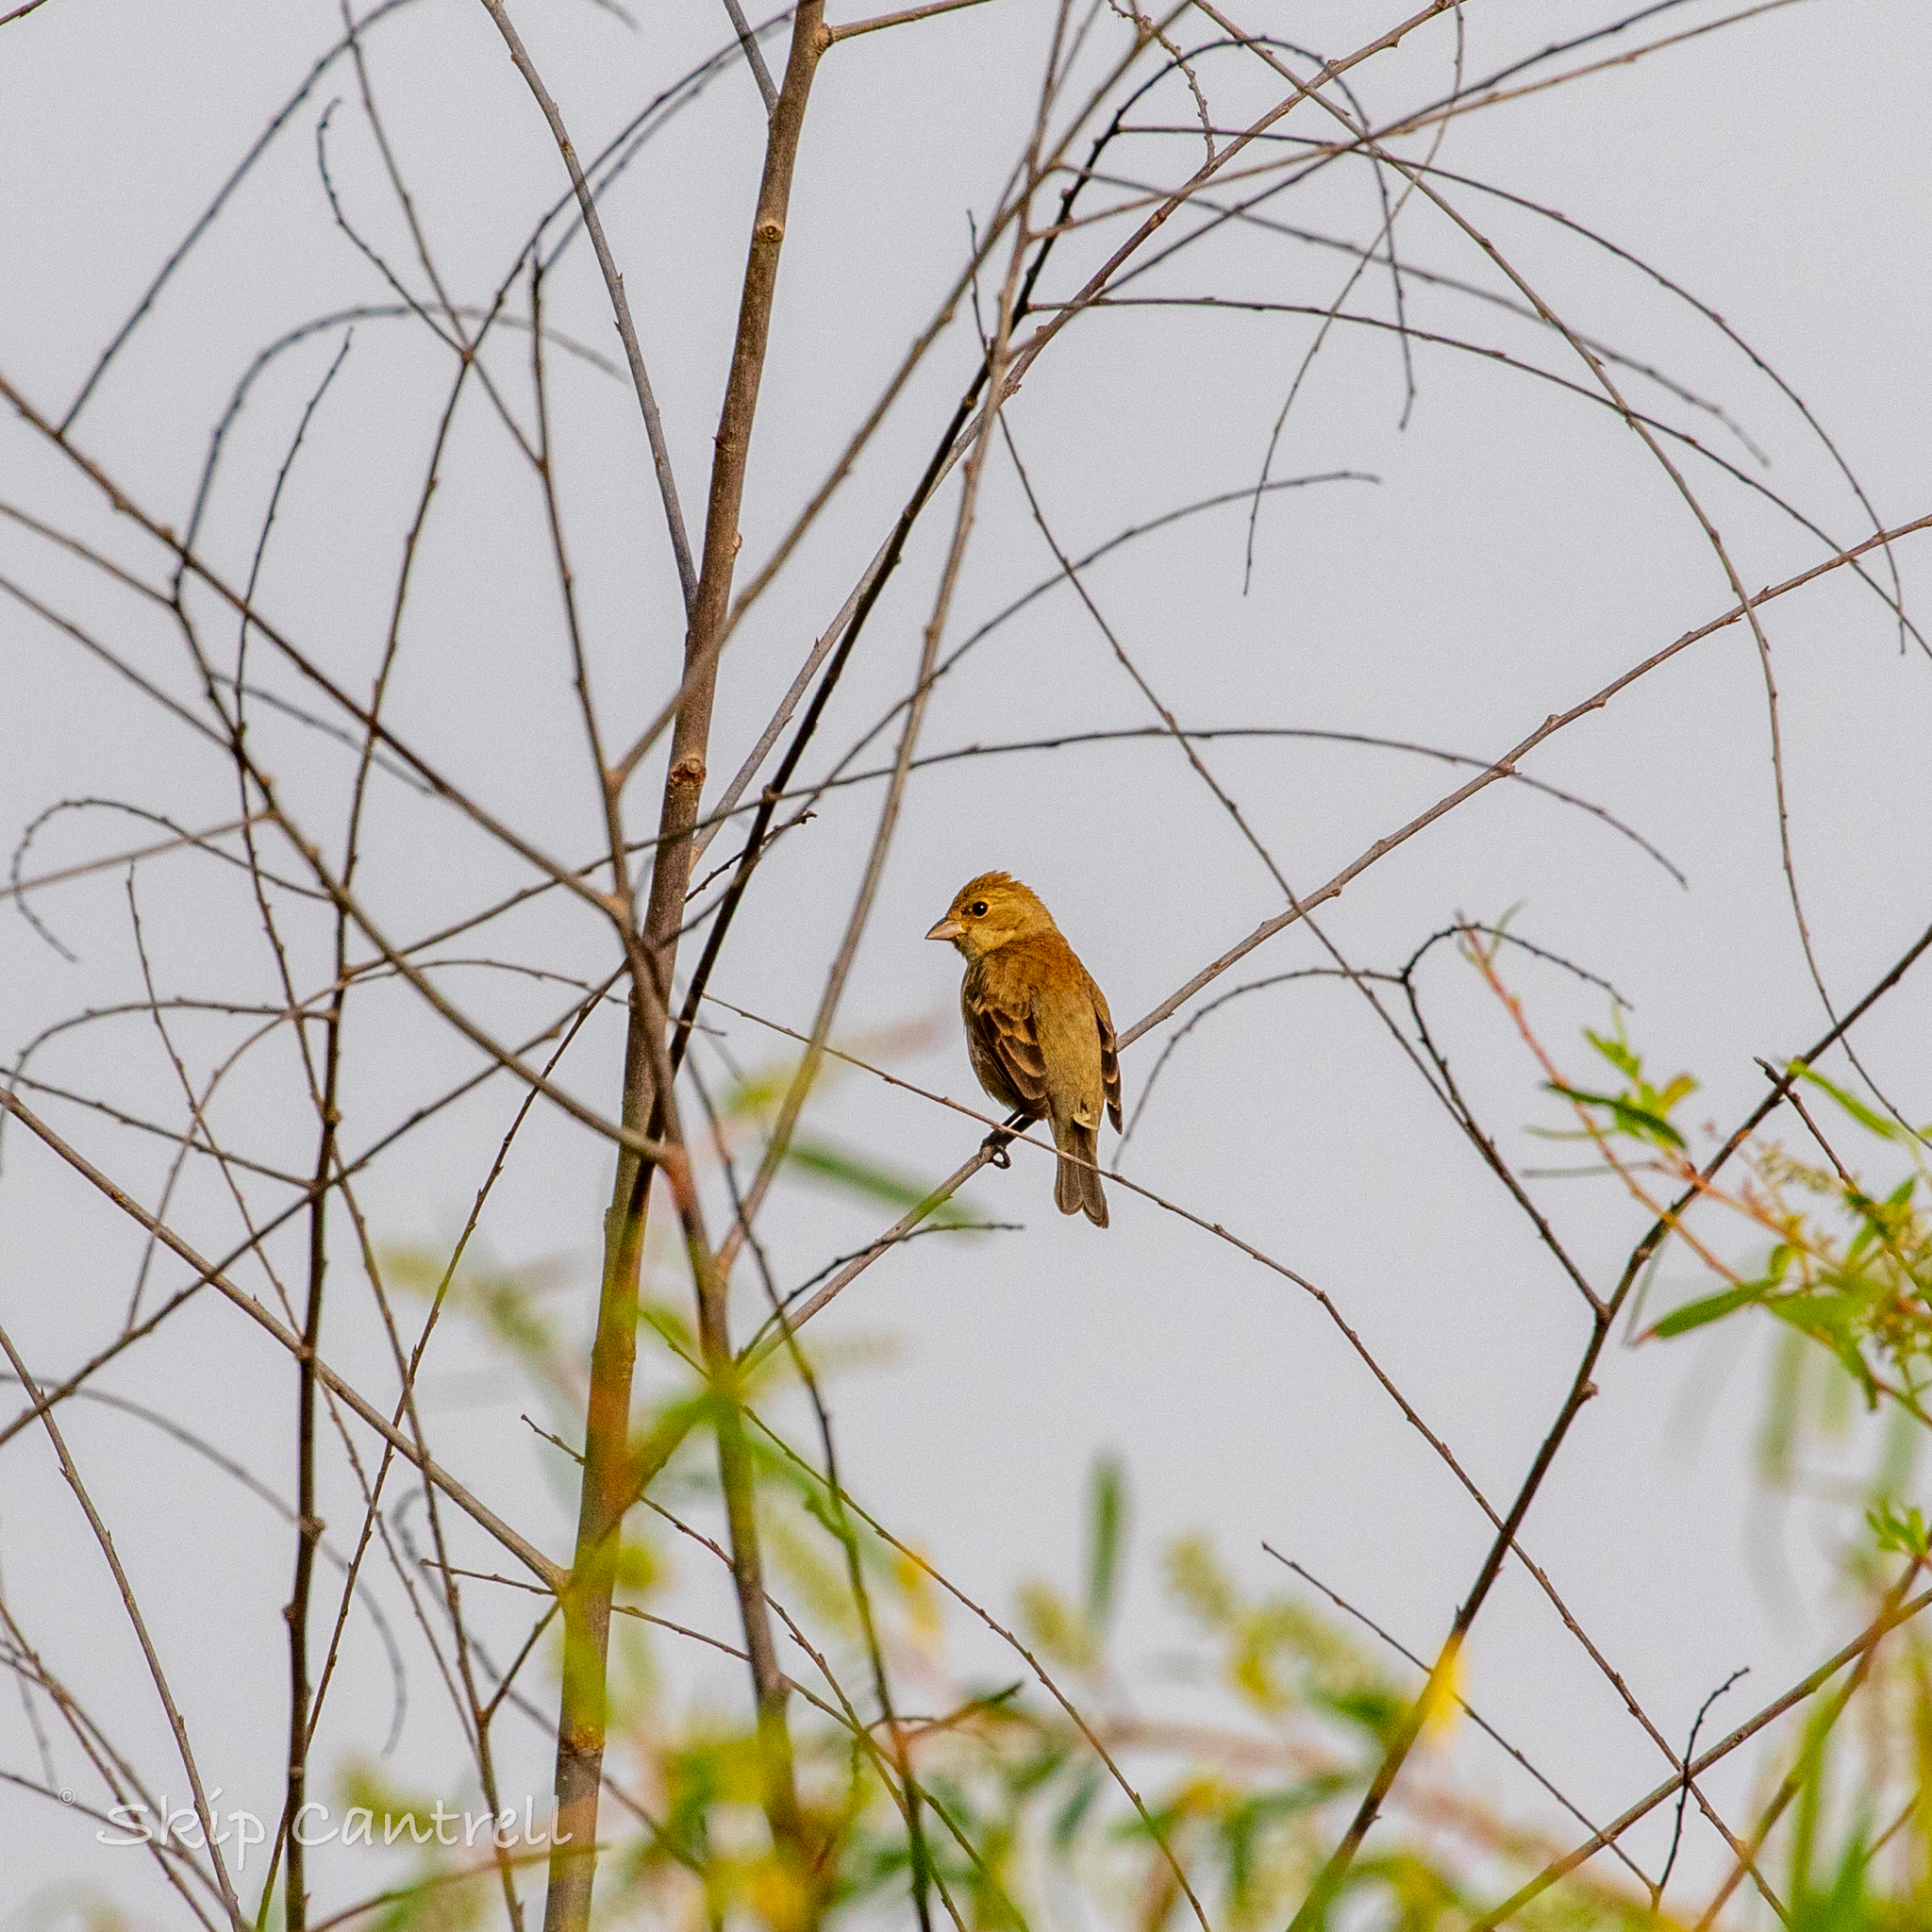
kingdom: Animalia
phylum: Chordata
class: Aves
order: Passeriformes
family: Cardinalidae
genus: Passerina
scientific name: Passerina cyanea
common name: Indigo bunting
